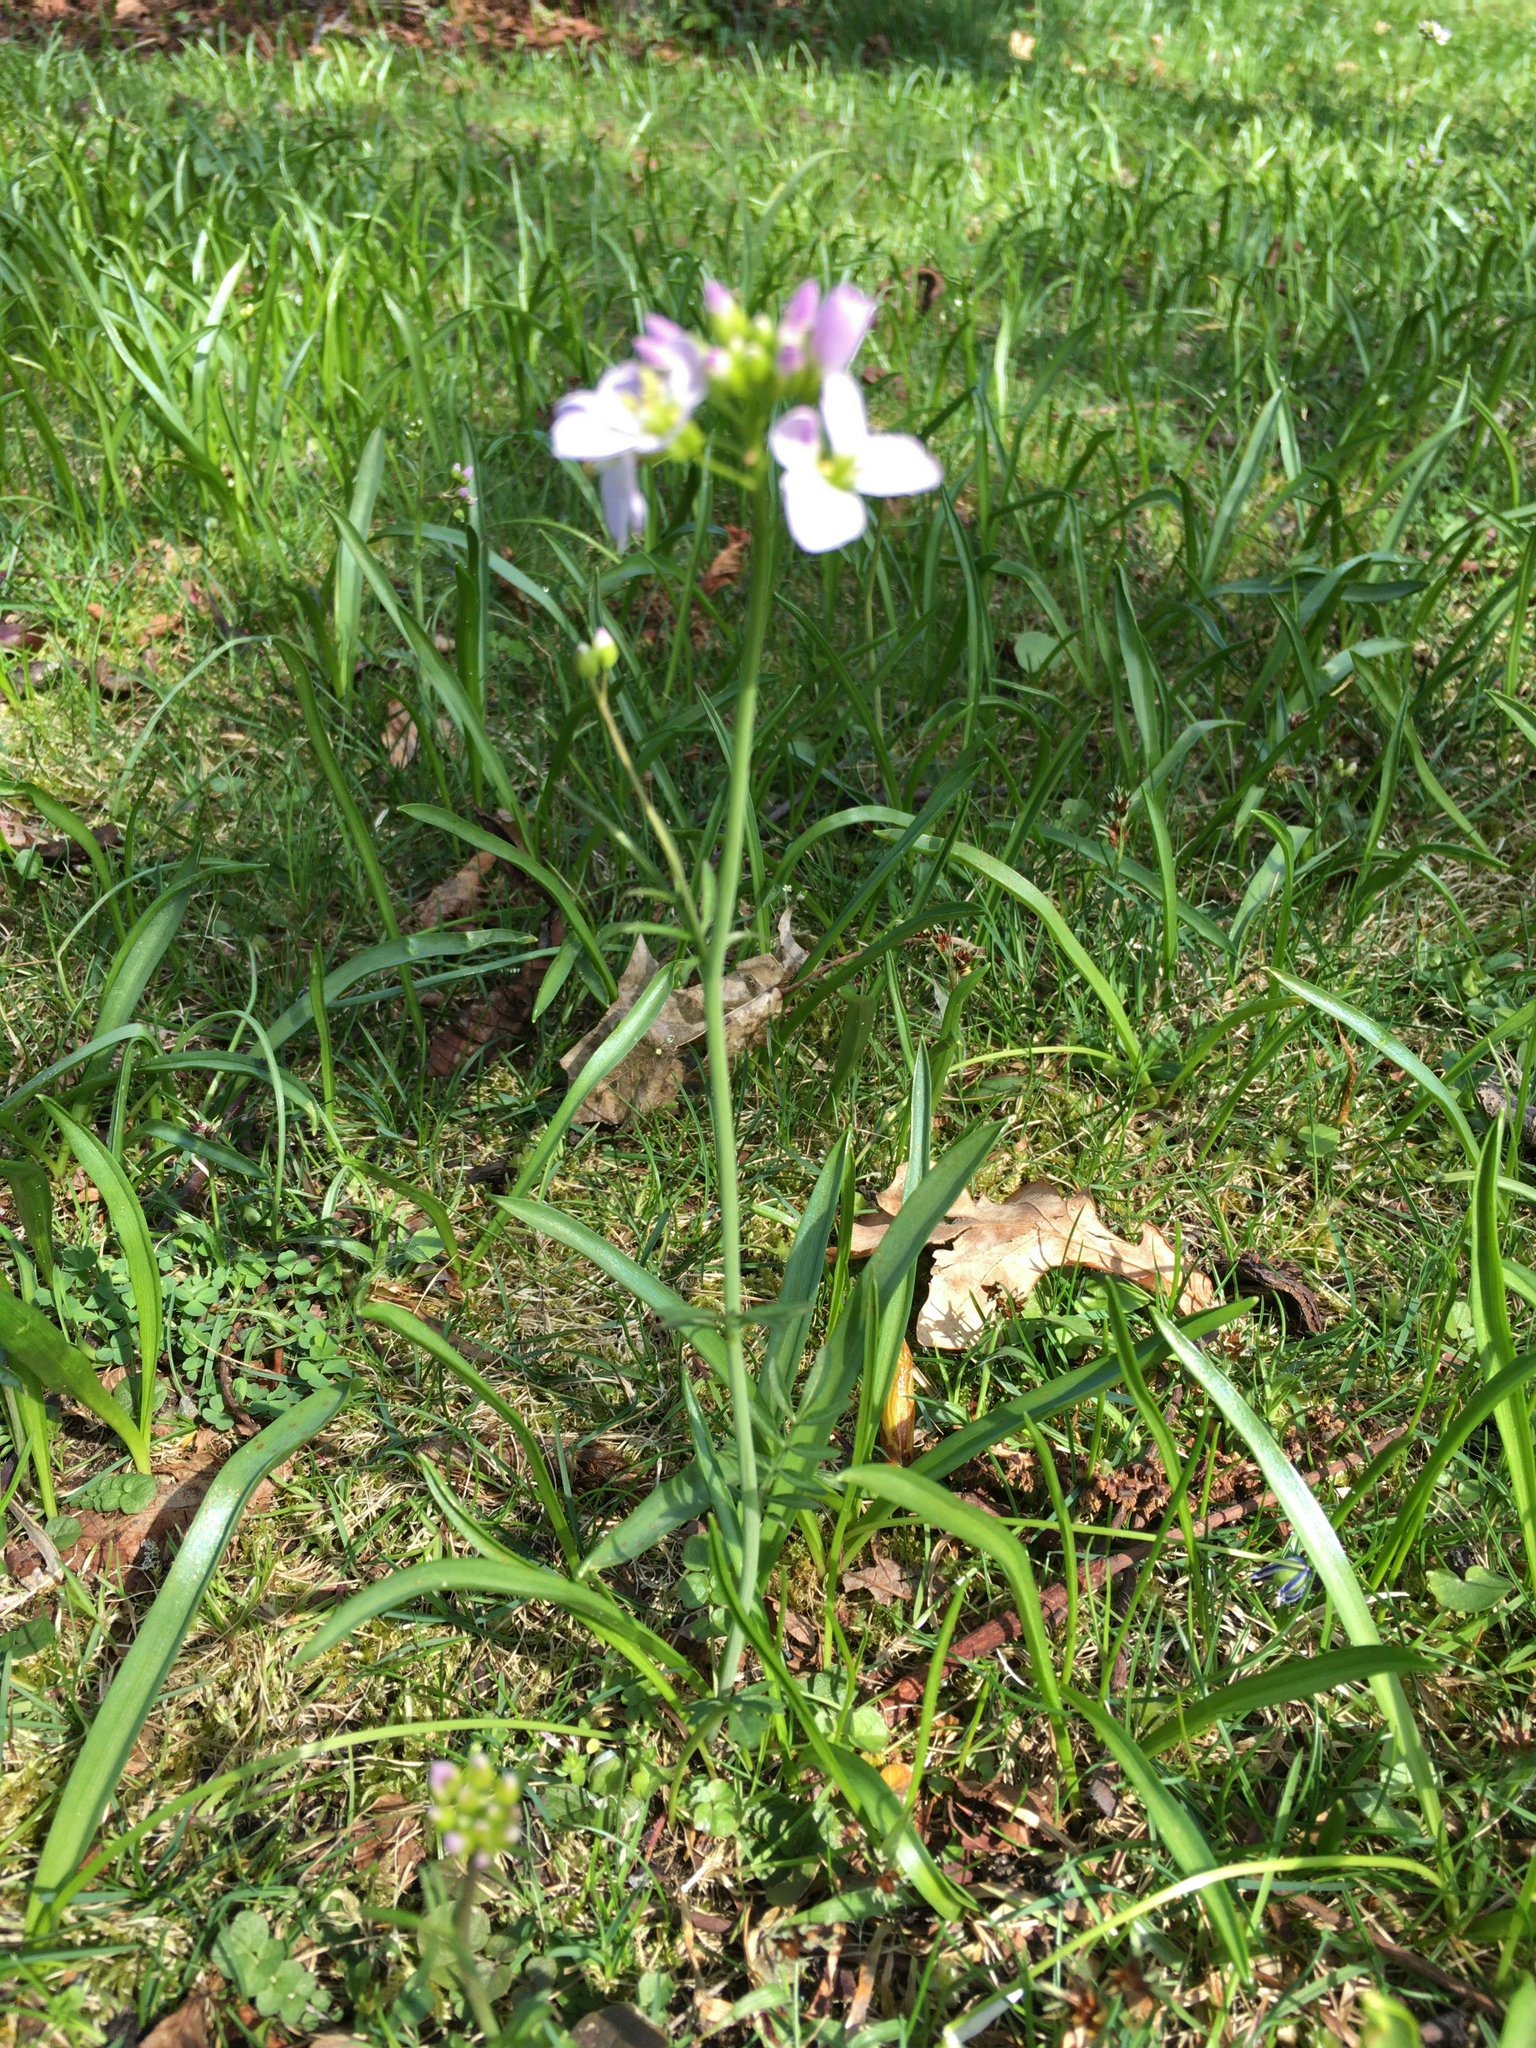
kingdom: Plantae
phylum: Tracheophyta
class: Magnoliopsida
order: Brassicales
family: Brassicaceae
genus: Cardamine
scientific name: Cardamine pratensis
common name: Cuckoo flower
